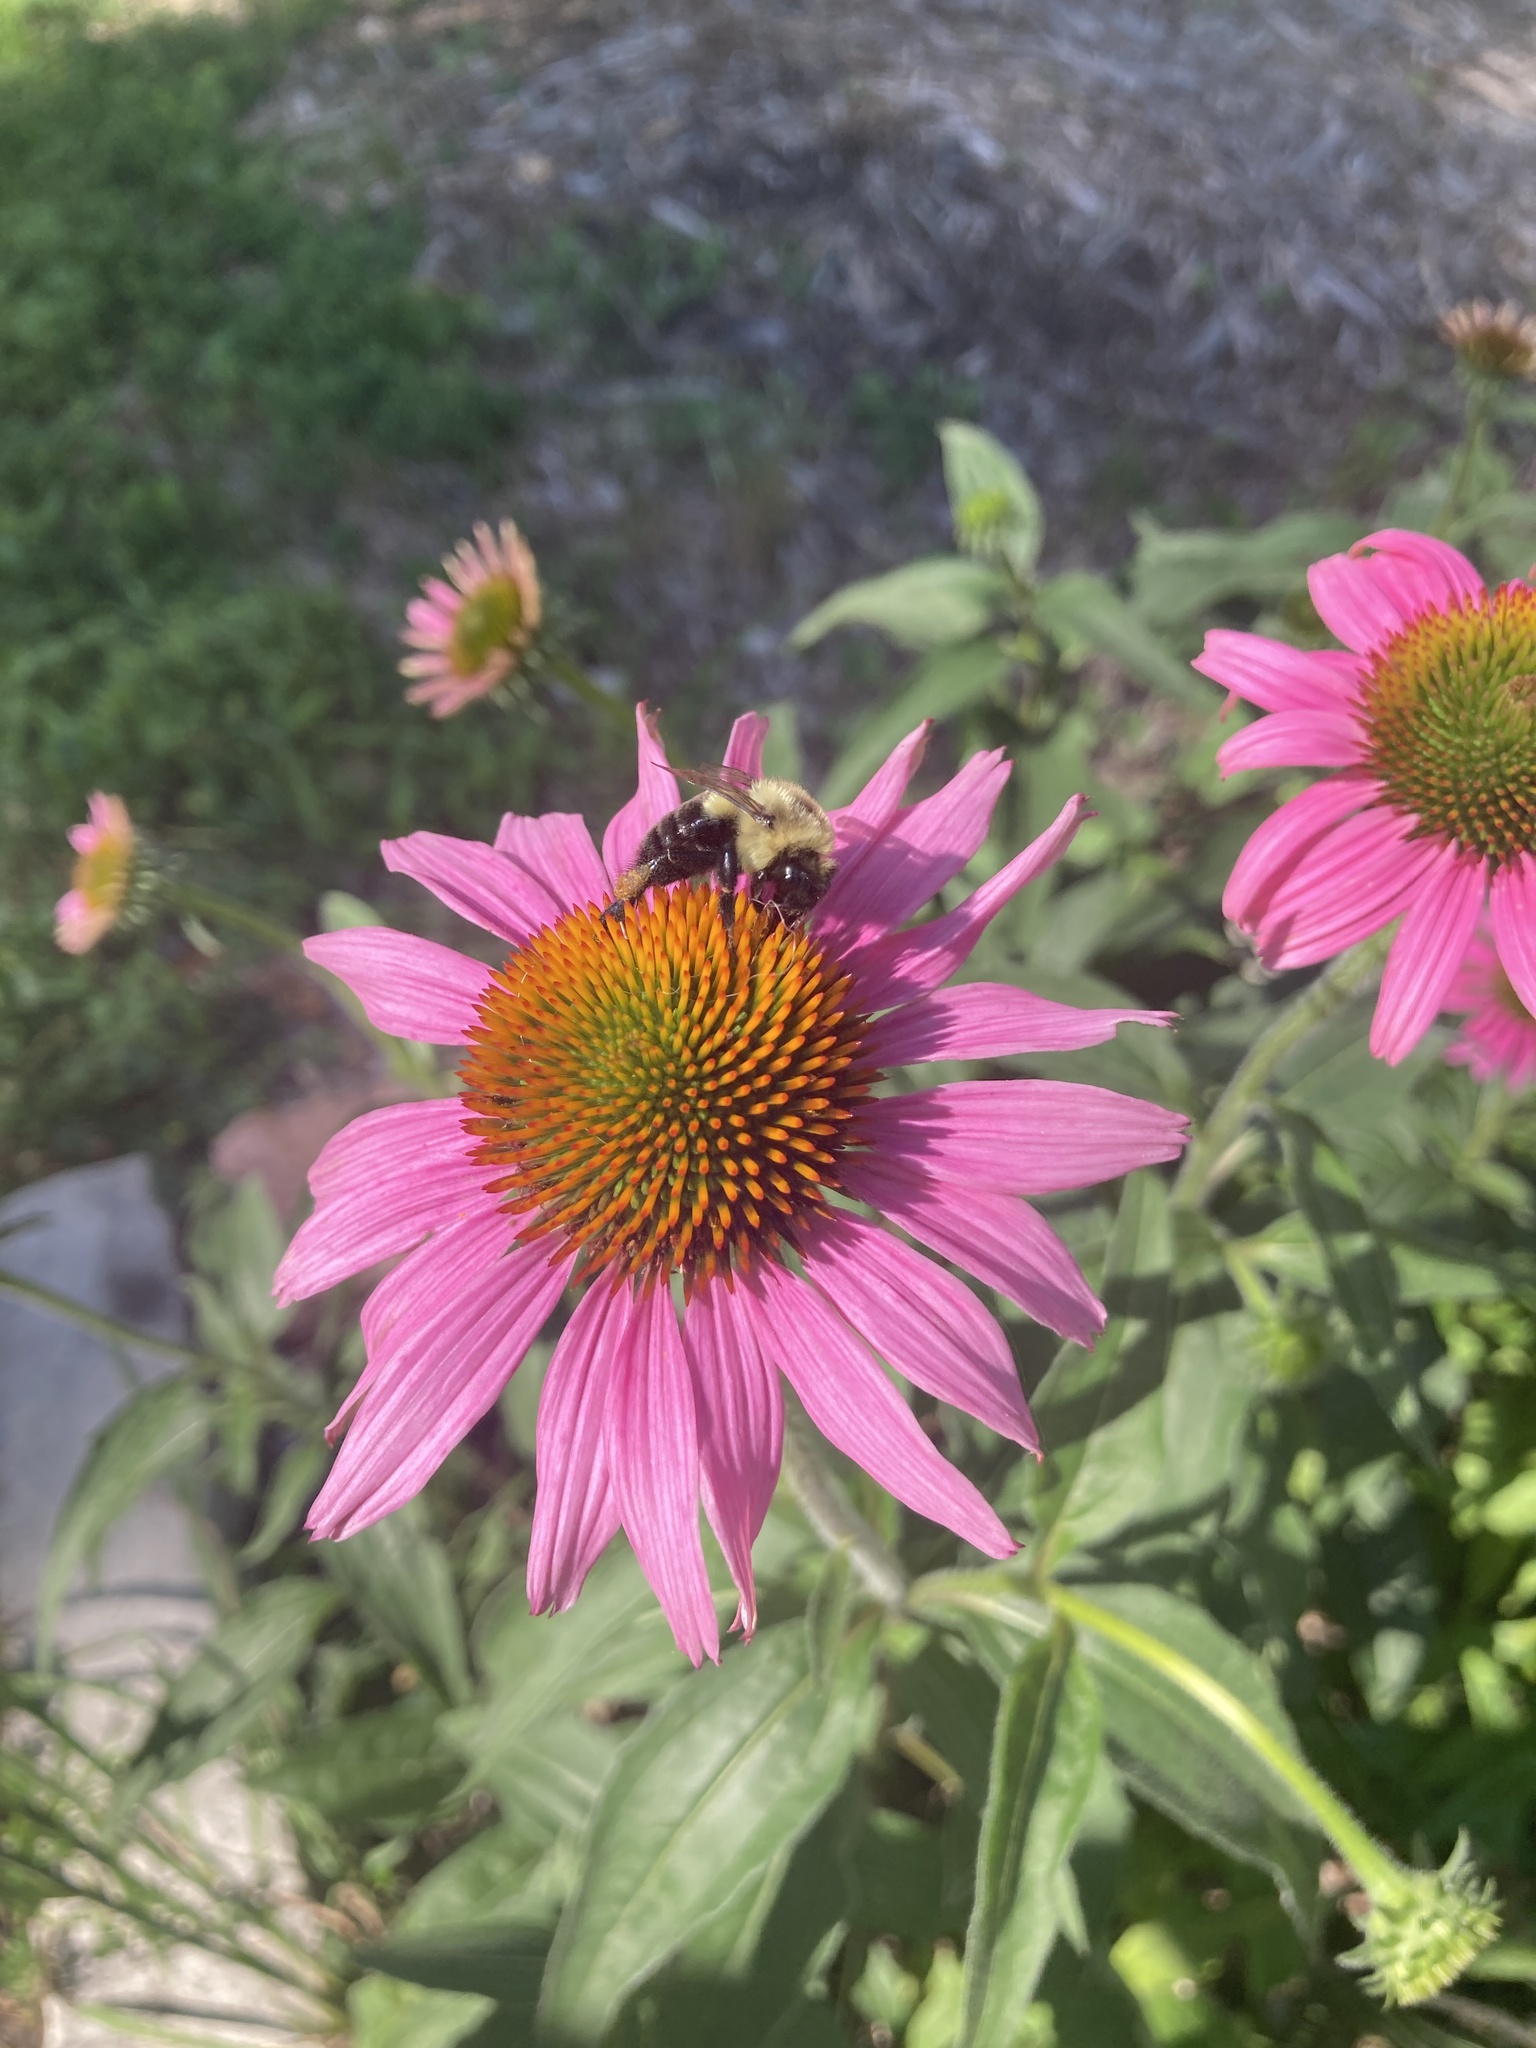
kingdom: Animalia
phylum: Arthropoda
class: Insecta
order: Hymenoptera
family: Apidae
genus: Bombus
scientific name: Bombus impatiens
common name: Common eastern bumble bee
